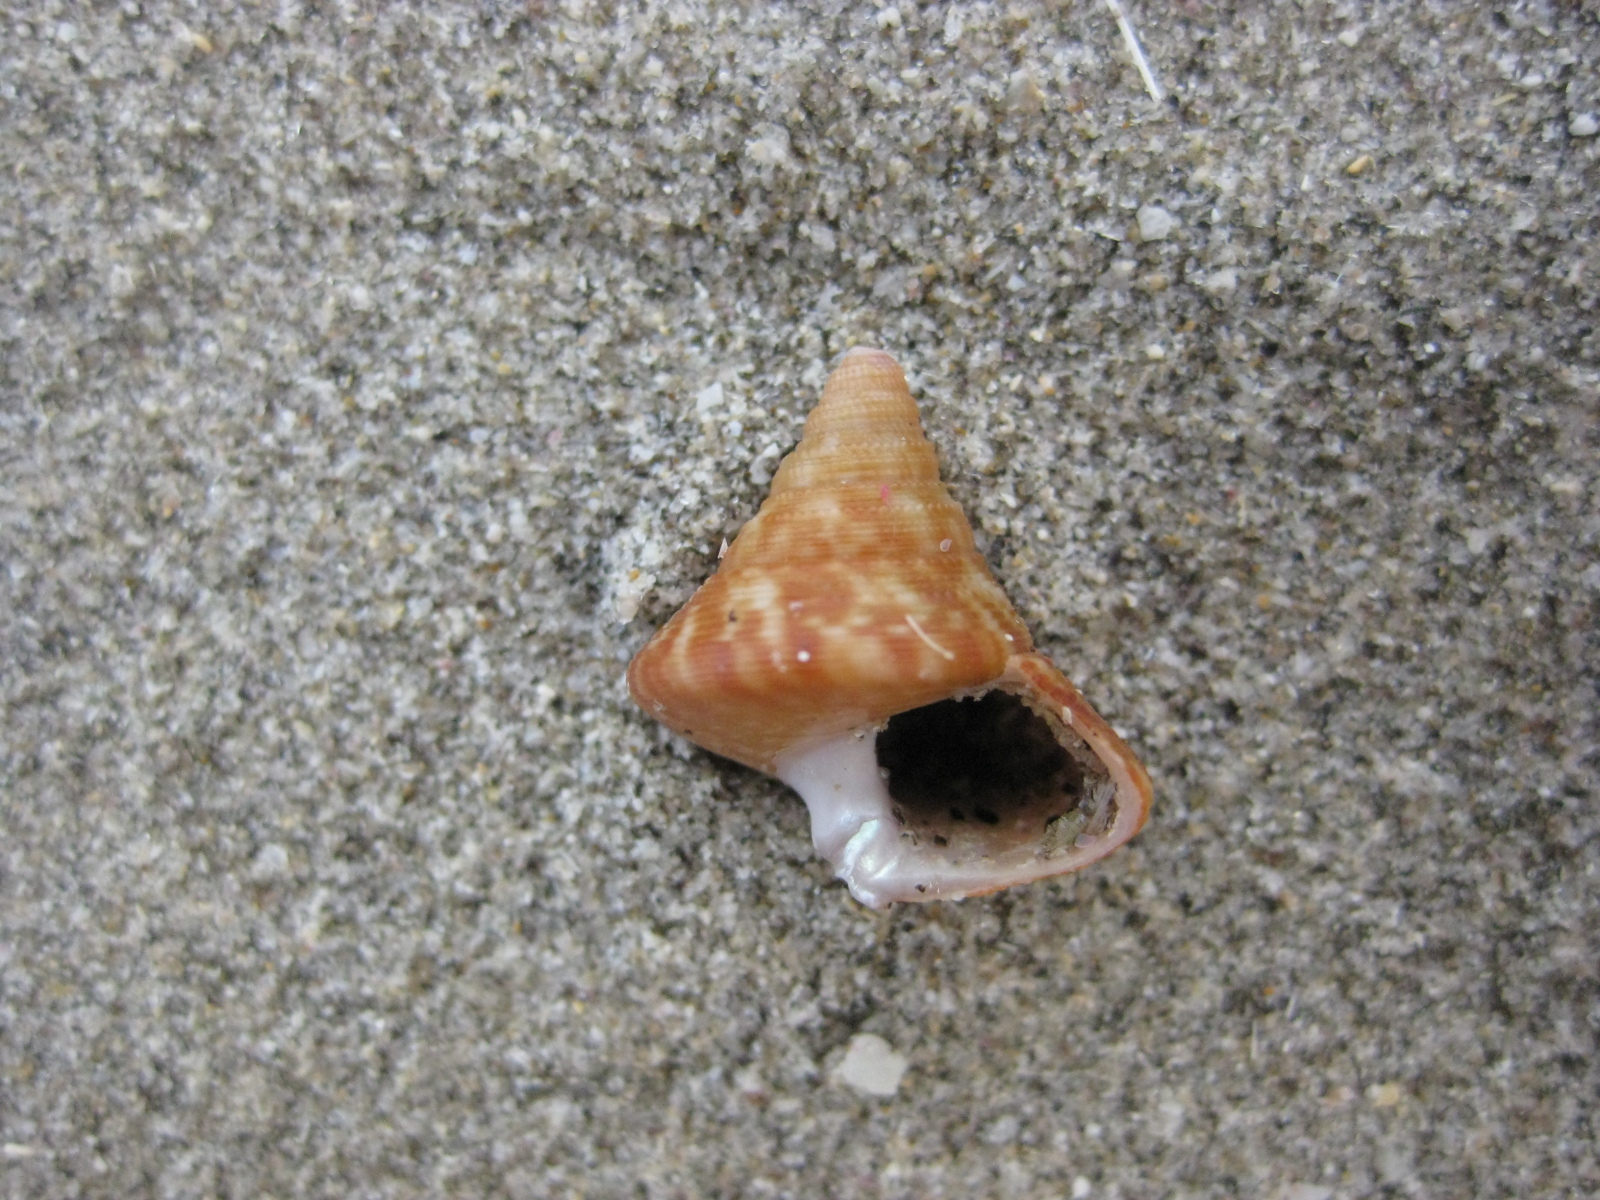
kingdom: Animalia
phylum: Mollusca
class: Gastropoda
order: Trochida
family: Calliostomatidae
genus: Maurea
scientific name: Maurea tigris
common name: Tiger maurea
